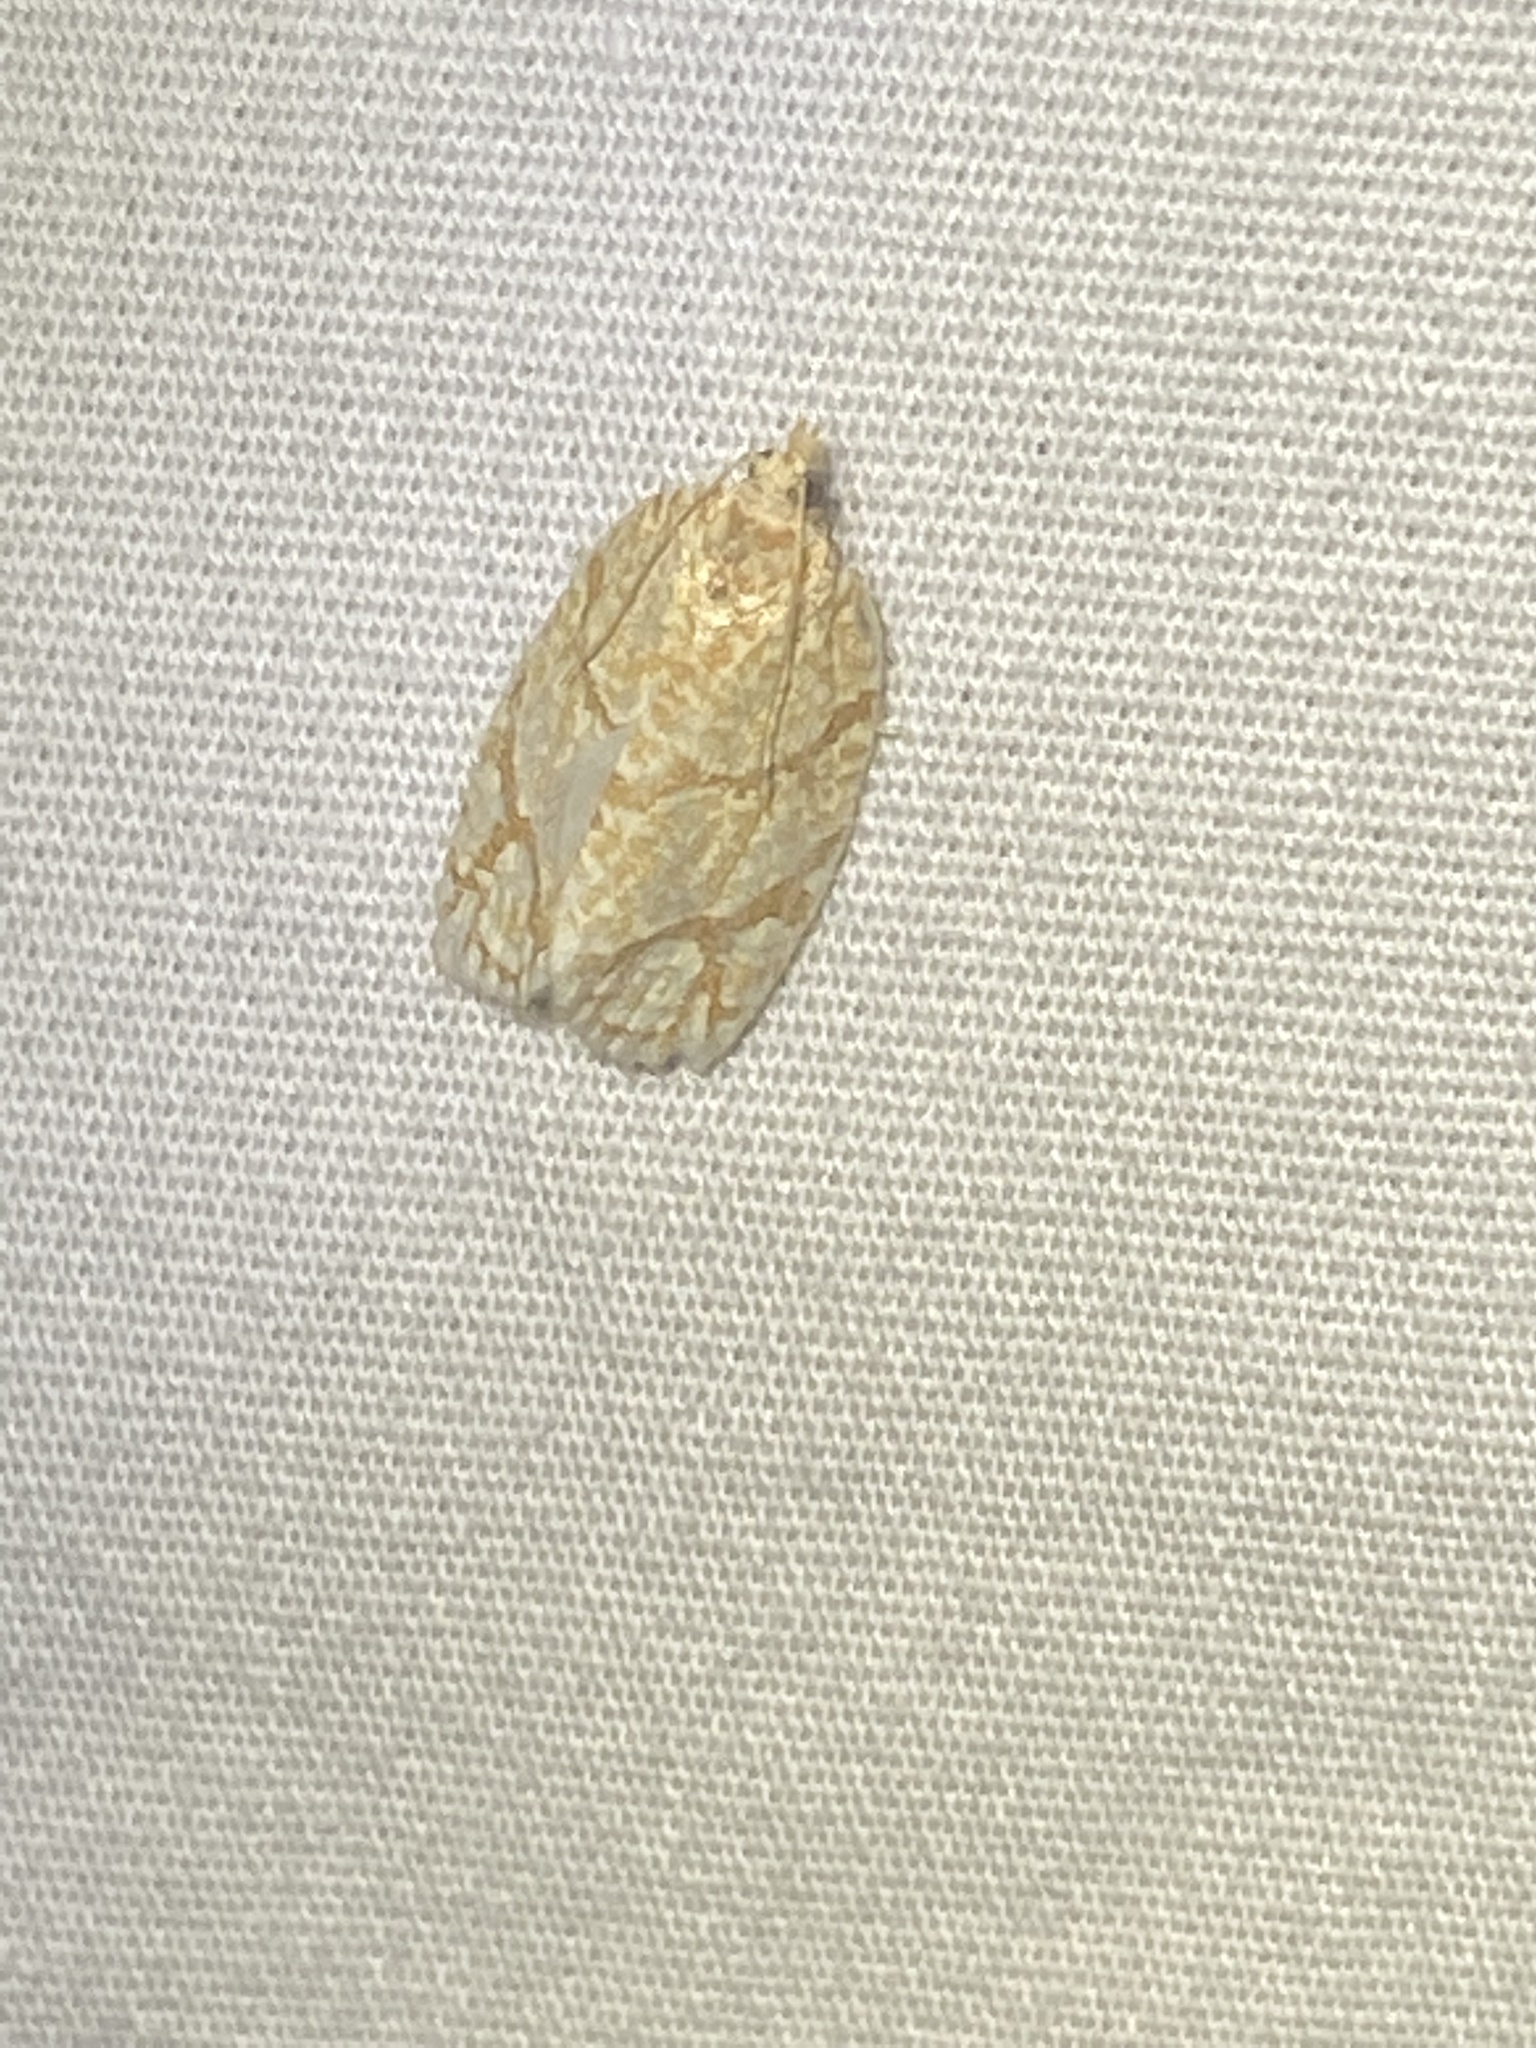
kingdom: Animalia
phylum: Arthropoda
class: Insecta
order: Lepidoptera
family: Tortricidae
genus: Argyrotaenia
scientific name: Argyrotaenia quercifoliana
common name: Yellow-winged oak leafroller moth
